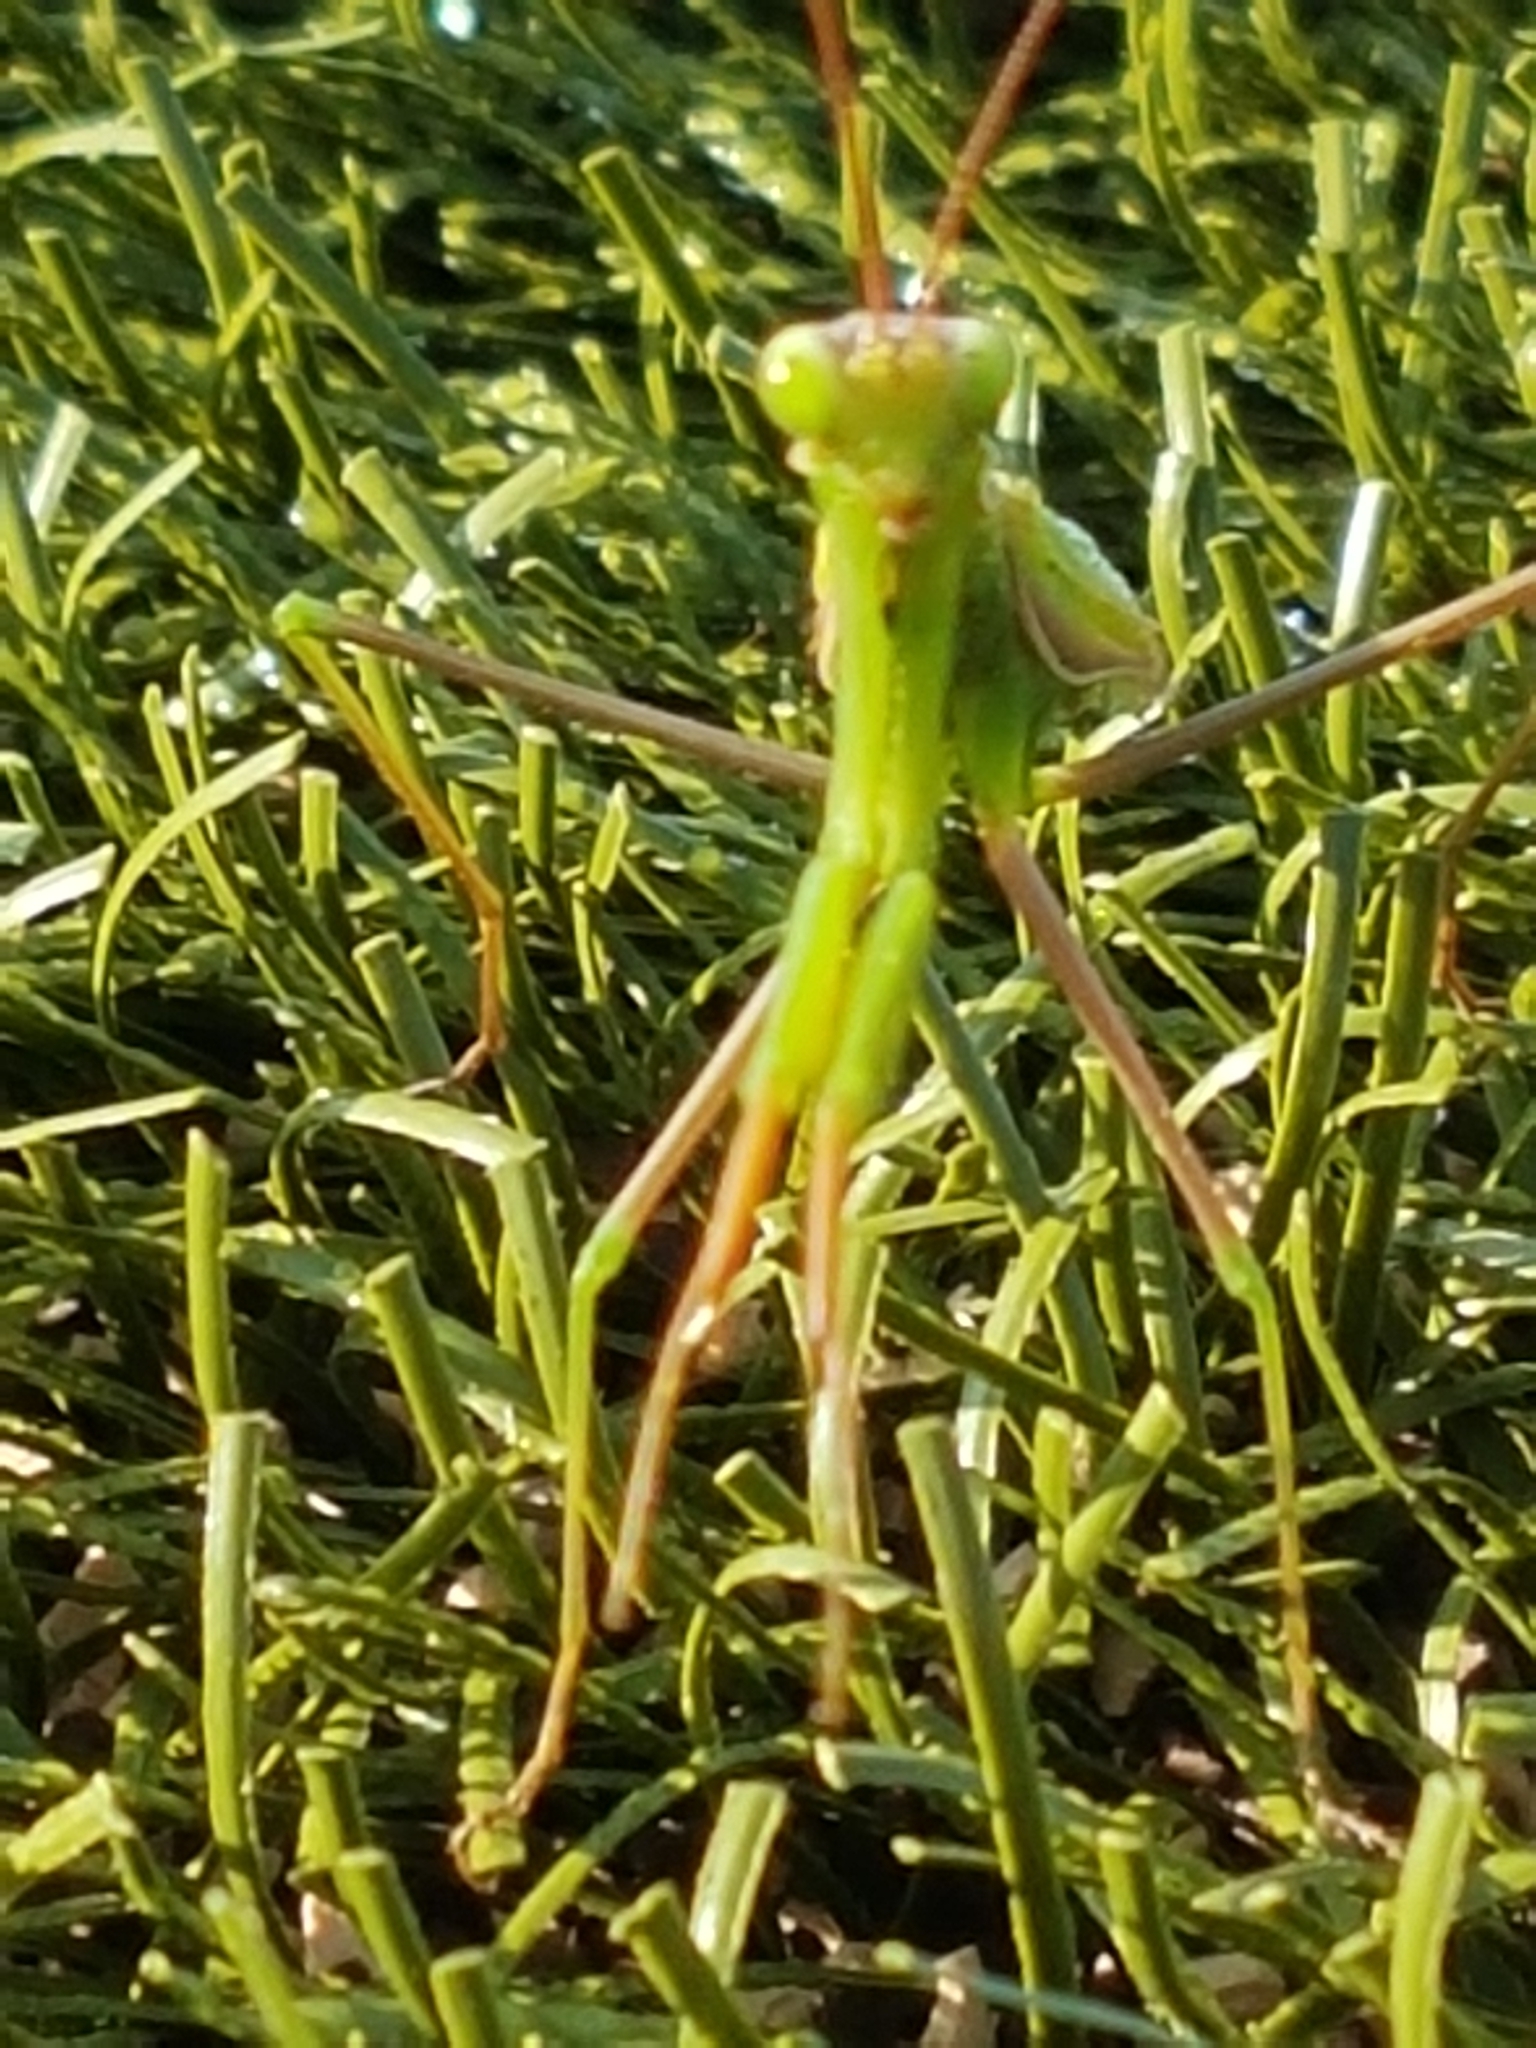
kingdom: Animalia
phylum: Arthropoda
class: Insecta
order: Mantodea
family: Mantidae
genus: Mantis
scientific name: Mantis religiosa
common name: Praying mantis
